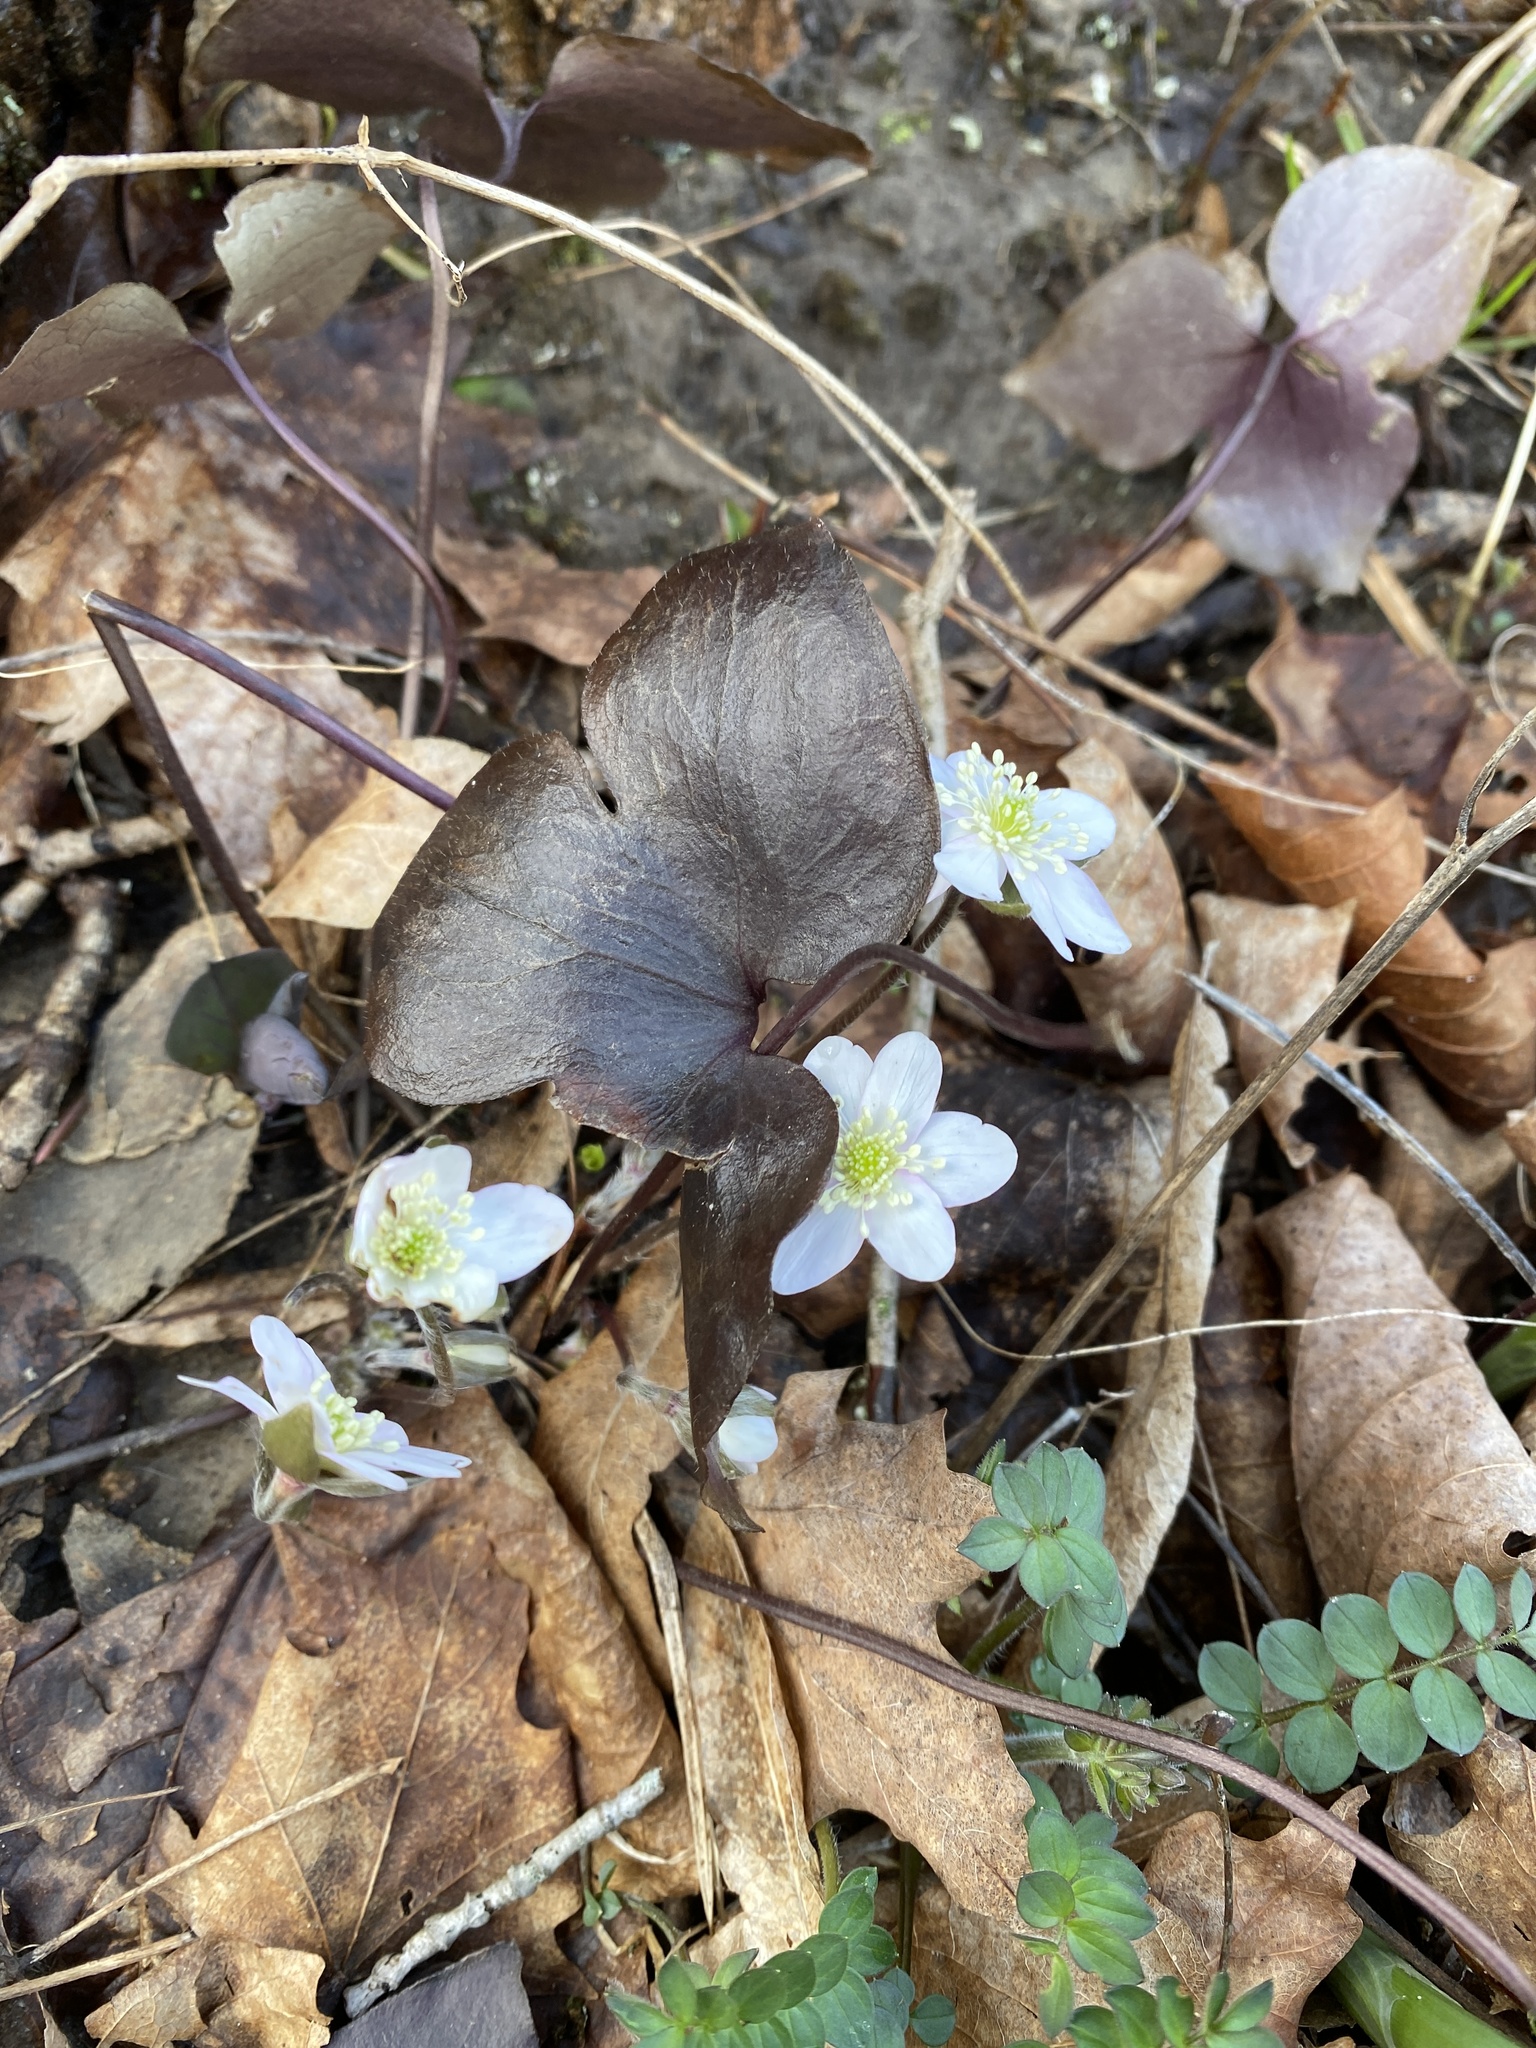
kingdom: Plantae
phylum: Tracheophyta
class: Magnoliopsida
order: Ranunculales
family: Ranunculaceae
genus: Hepatica
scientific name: Hepatica acutiloba
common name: Sharp-lobed hepatica
